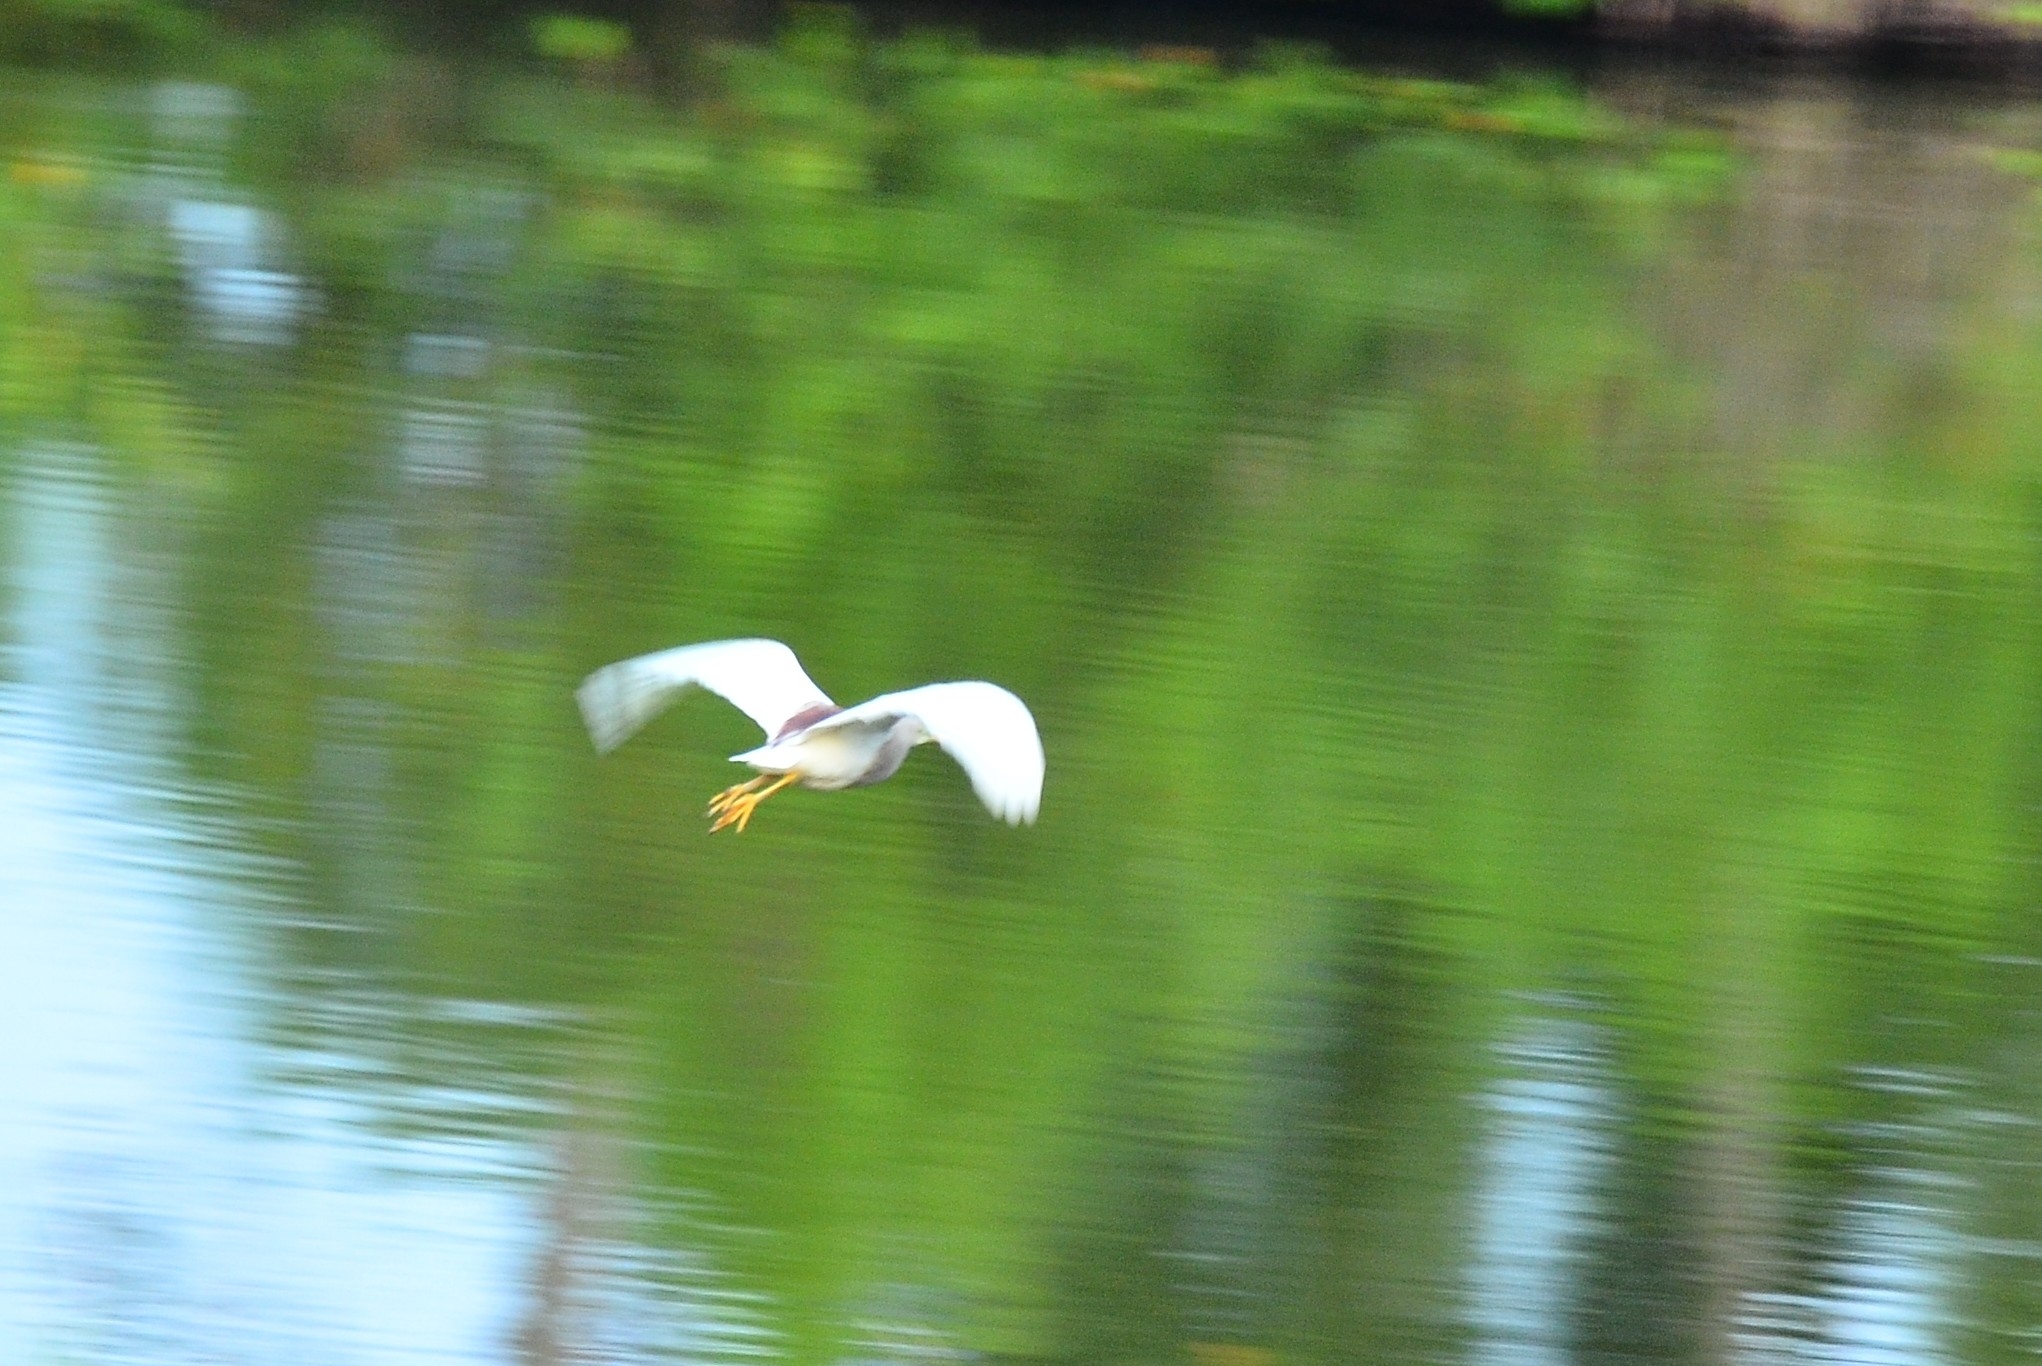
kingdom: Animalia
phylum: Chordata
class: Aves
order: Pelecaniformes
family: Ardeidae
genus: Ardeola
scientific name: Ardeola grayii
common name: Indian pond heron
